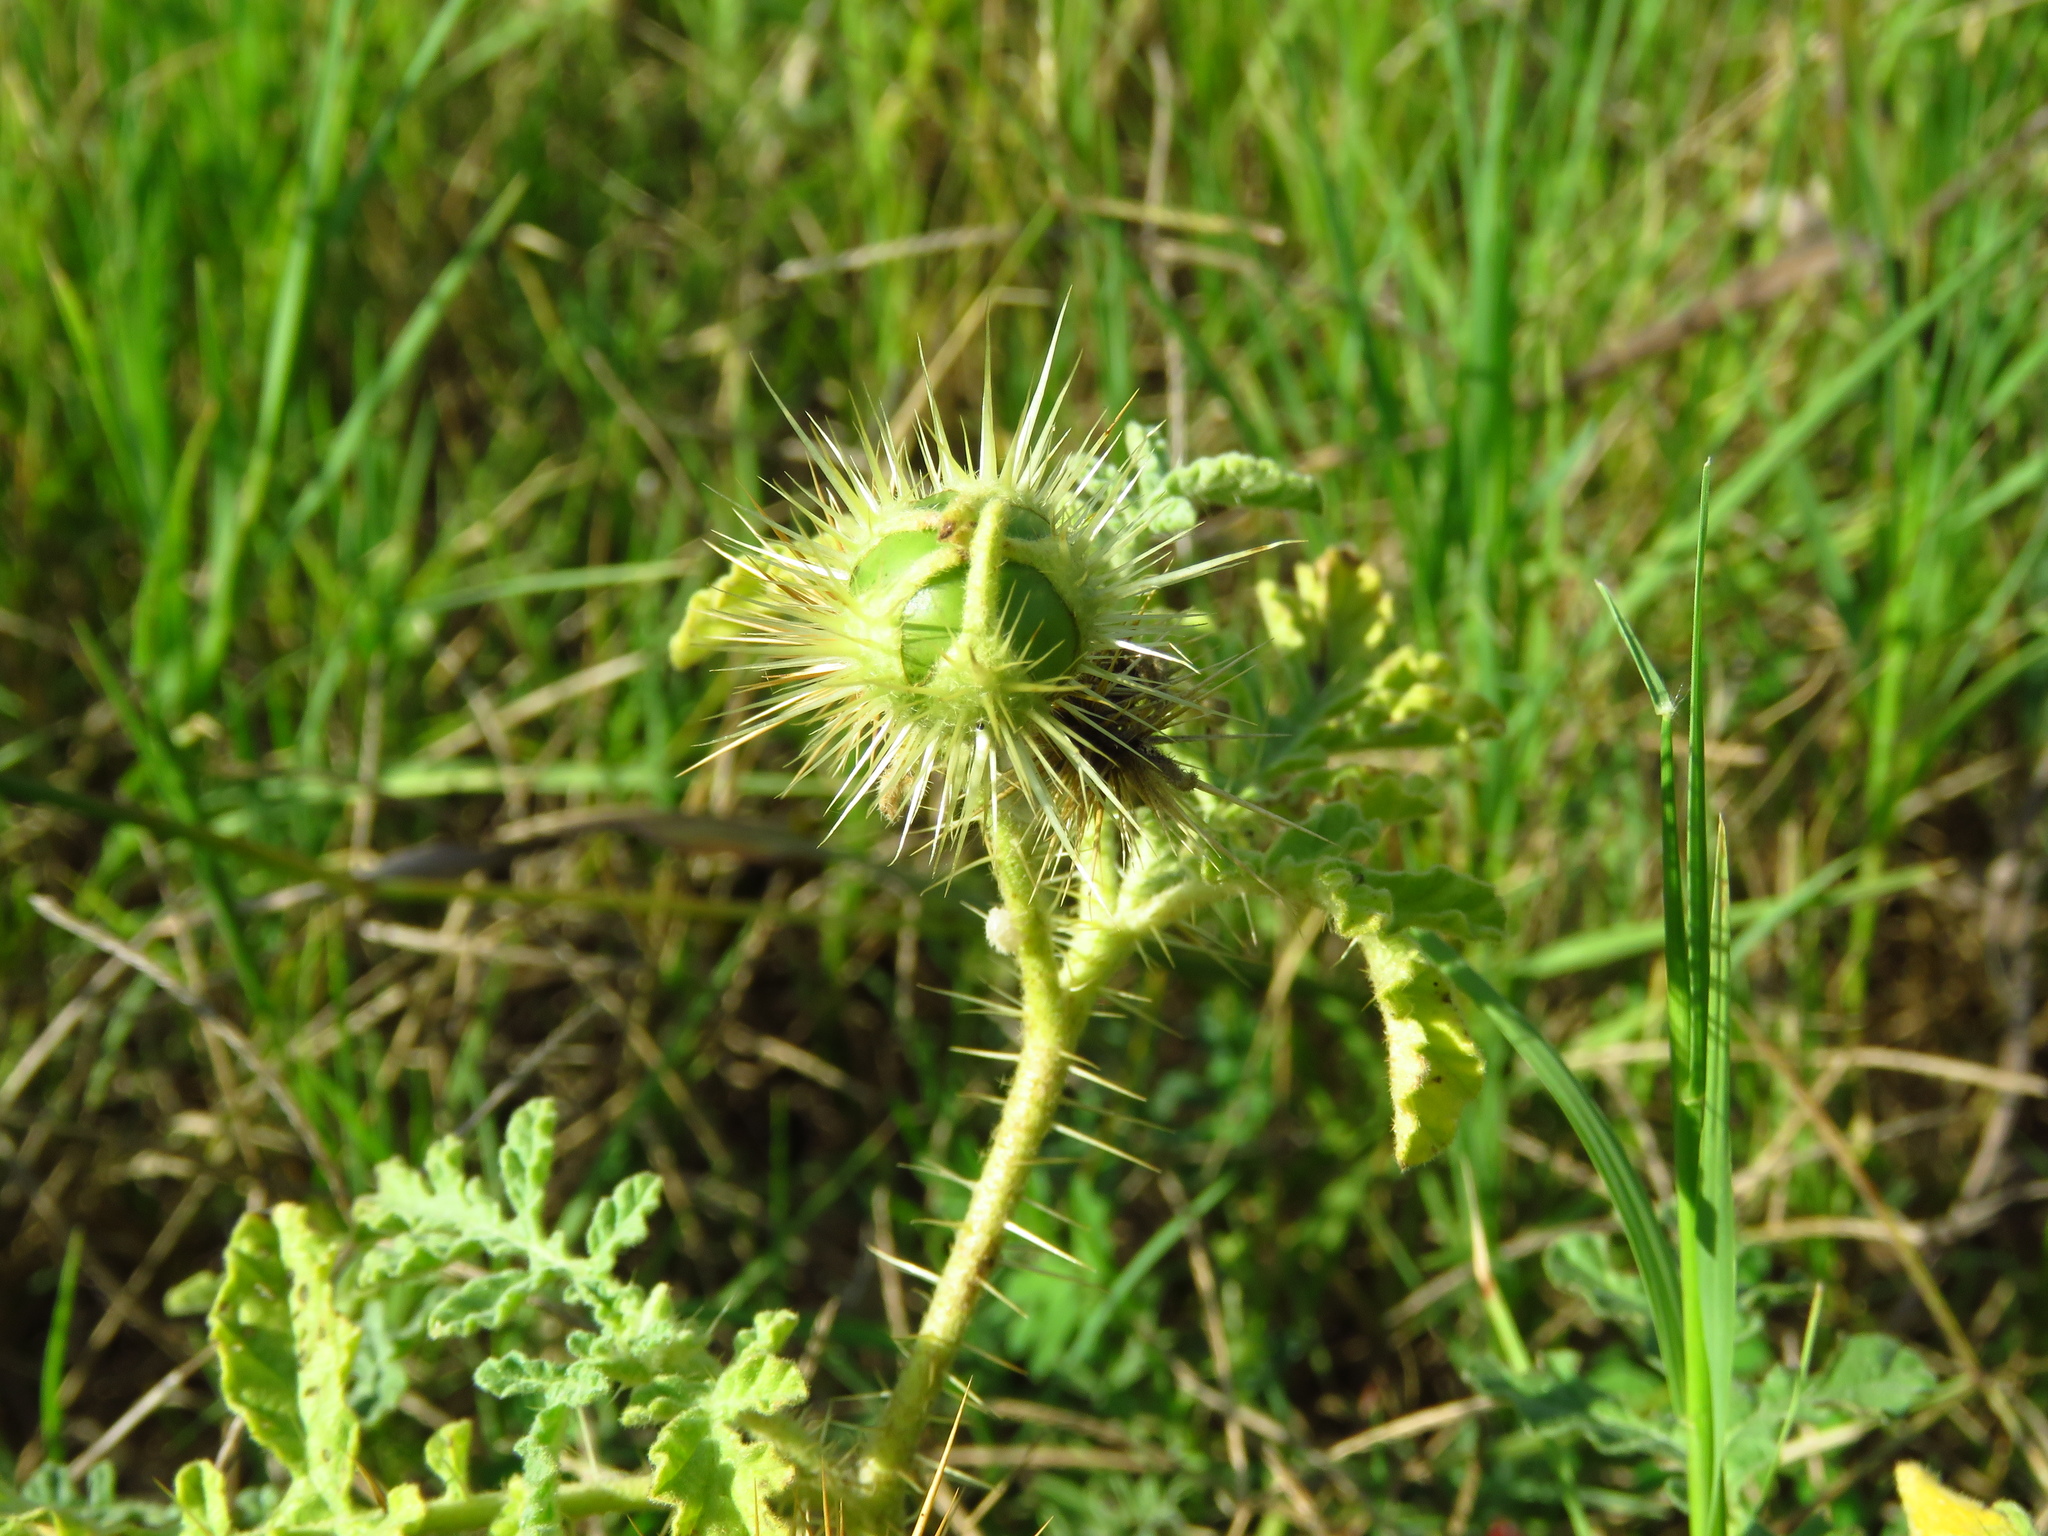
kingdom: Plantae
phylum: Tracheophyta
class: Magnoliopsida
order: Solanales
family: Solanaceae
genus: Solanum
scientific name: Solanum angustifolium
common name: Buffalobur nightshade
